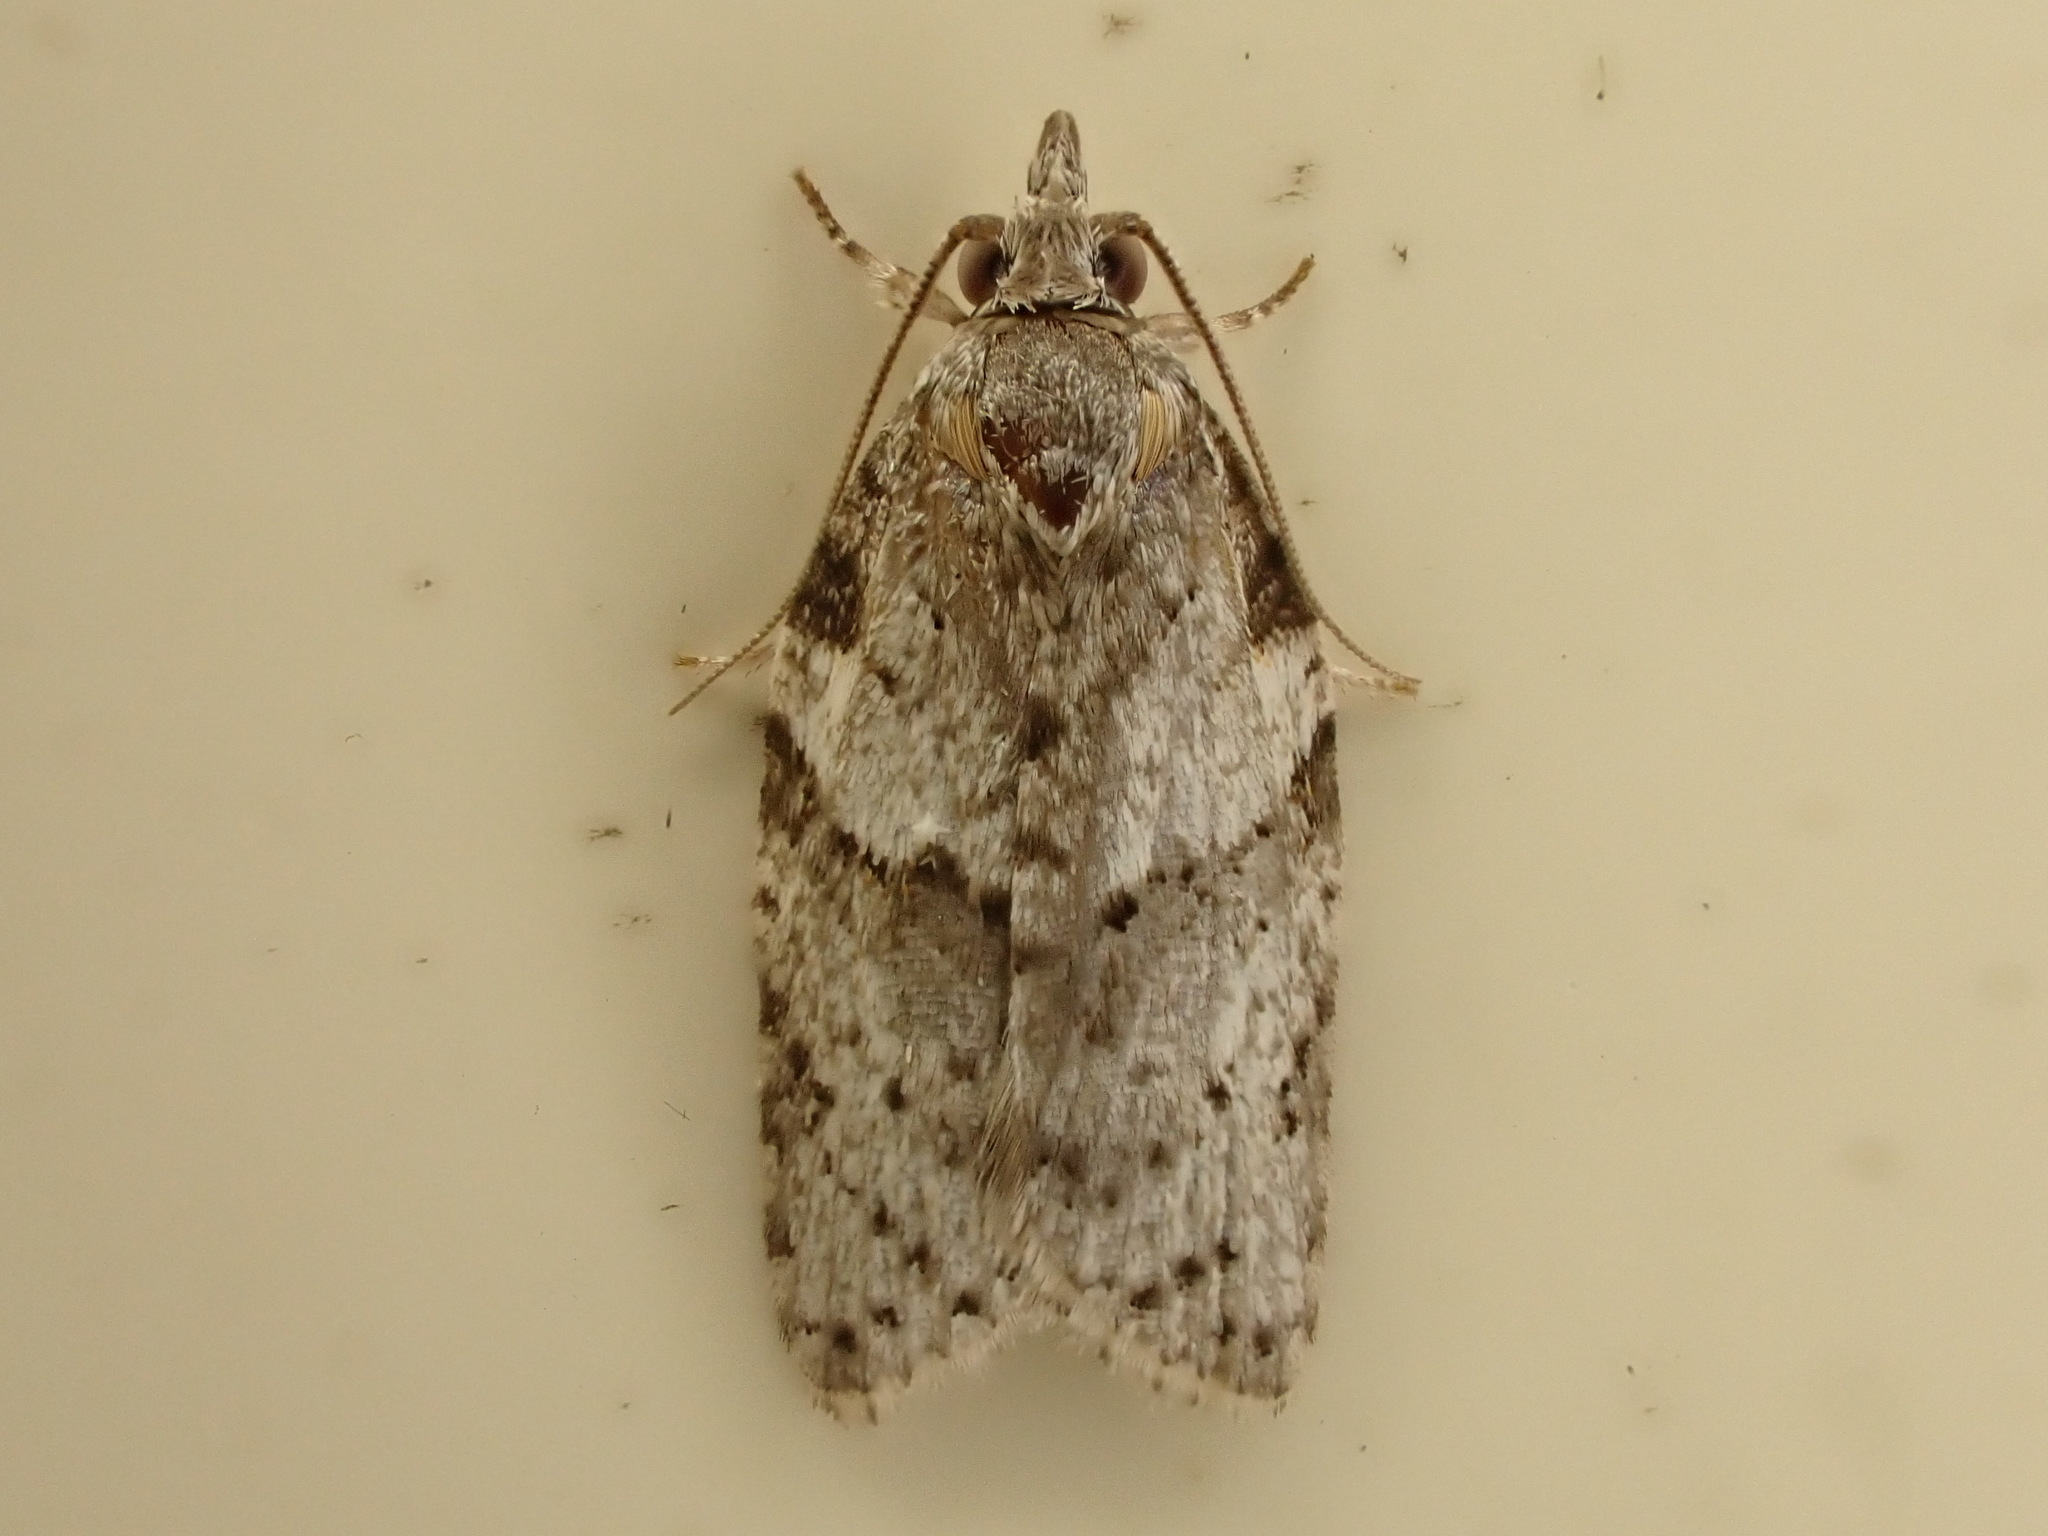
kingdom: Animalia
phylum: Arthropoda
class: Insecta
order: Lepidoptera
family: Tortricidae
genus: Isotenes
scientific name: Isotenes miserana
